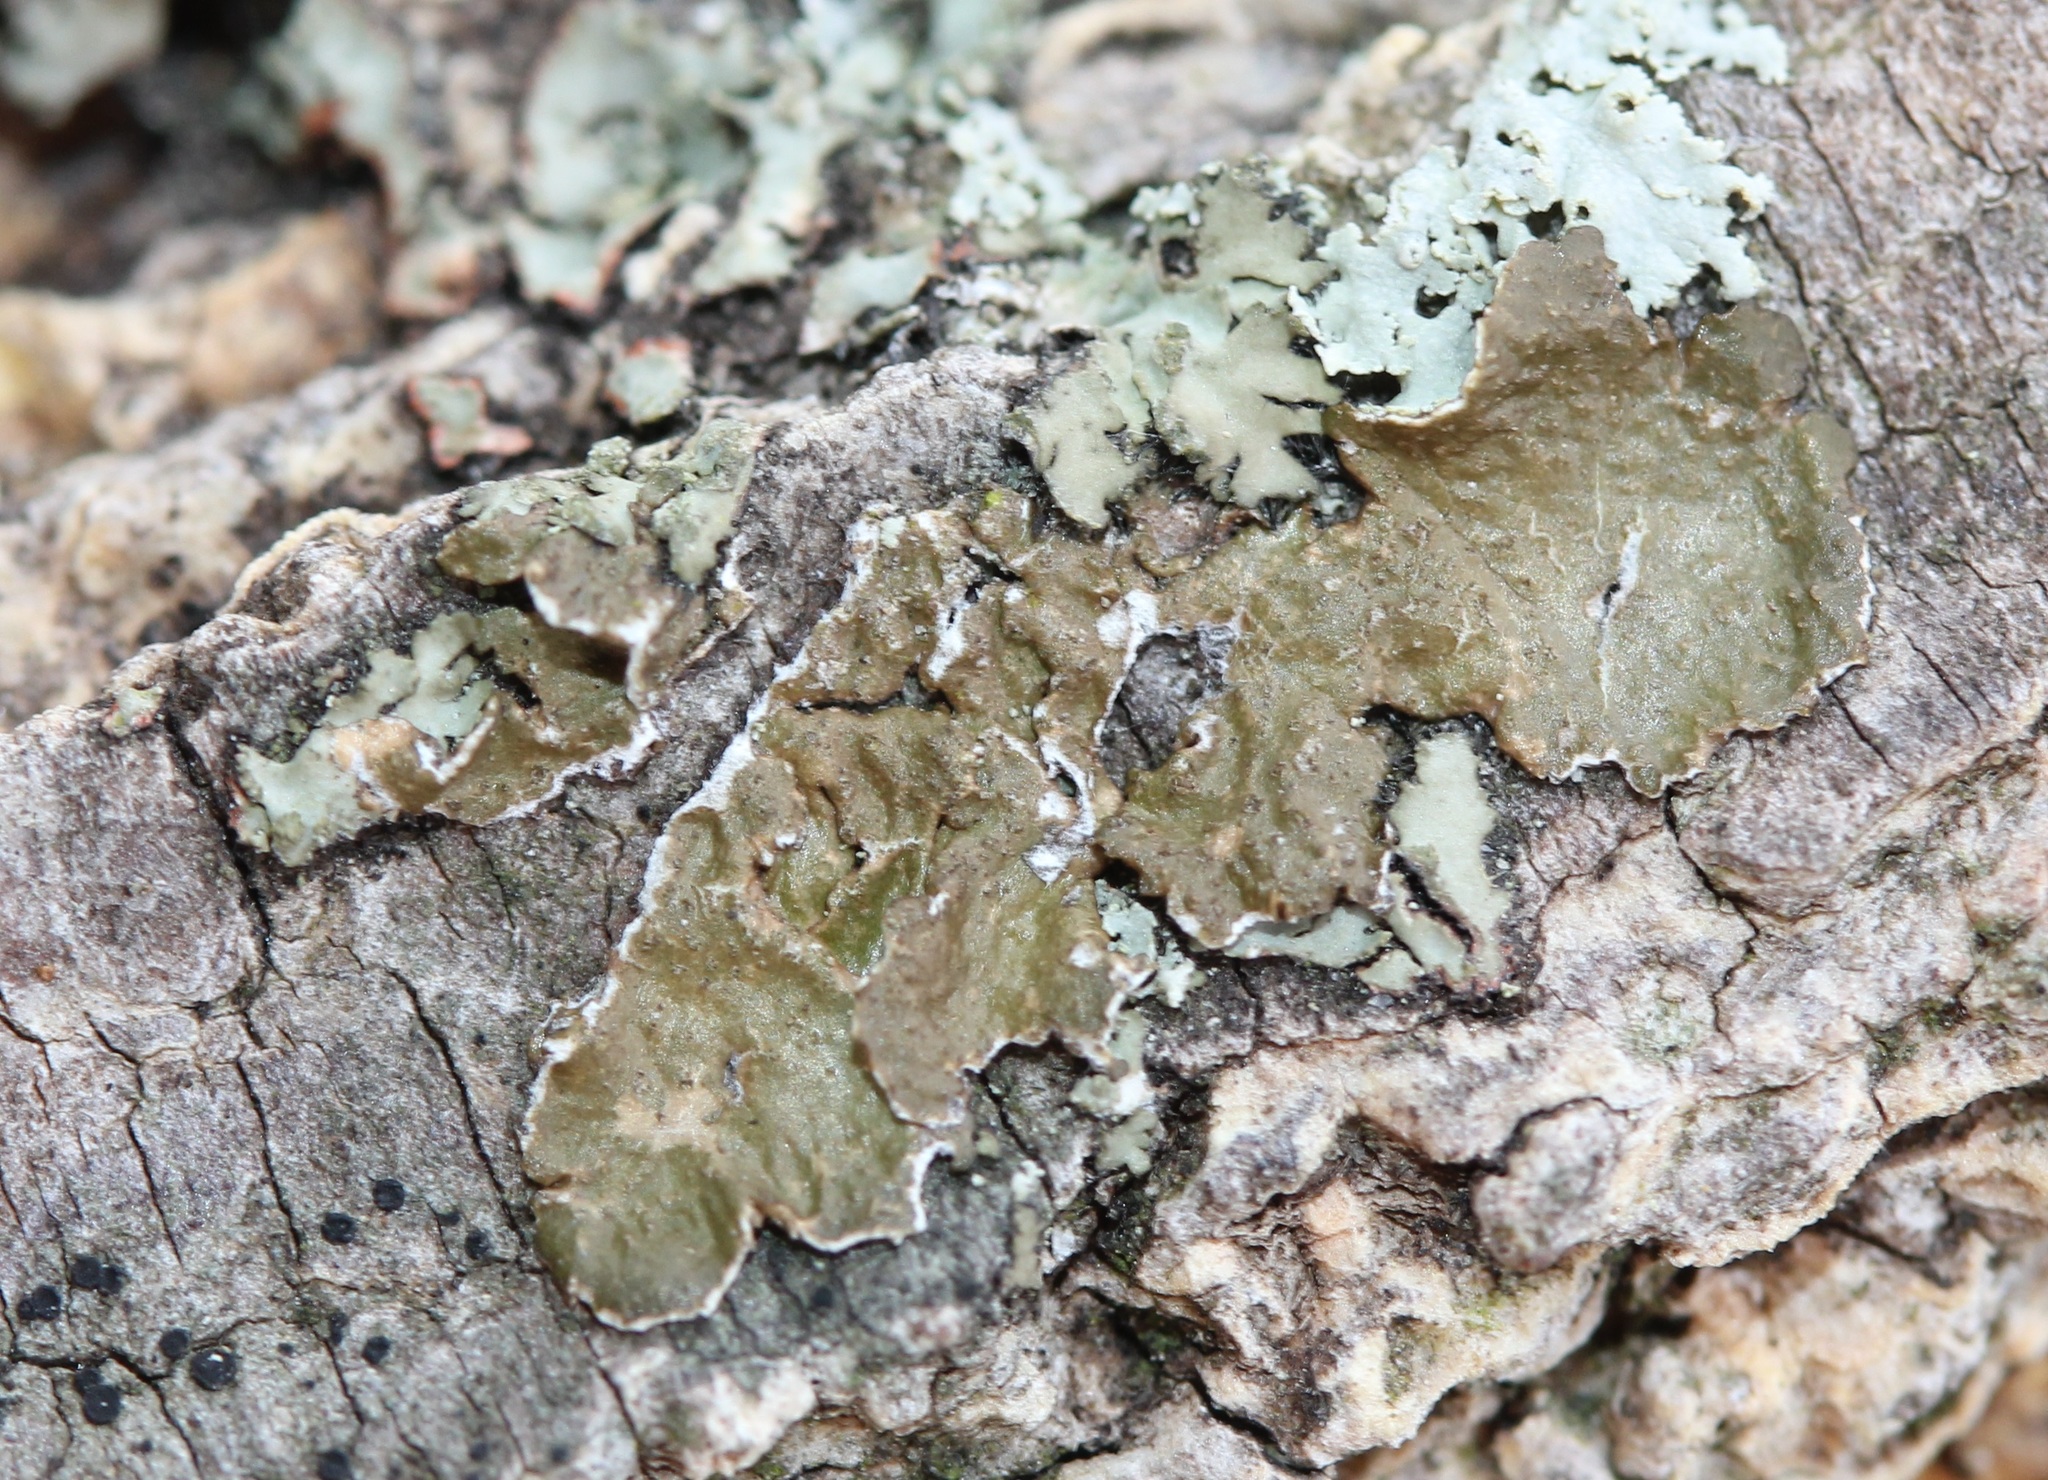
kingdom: Fungi
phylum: Ascomycota
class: Lecanoromycetes
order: Lecanorales
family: Parmeliaceae
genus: Melanelixia
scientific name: Melanelixia subaurifera
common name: Abraded camouflage lichen
